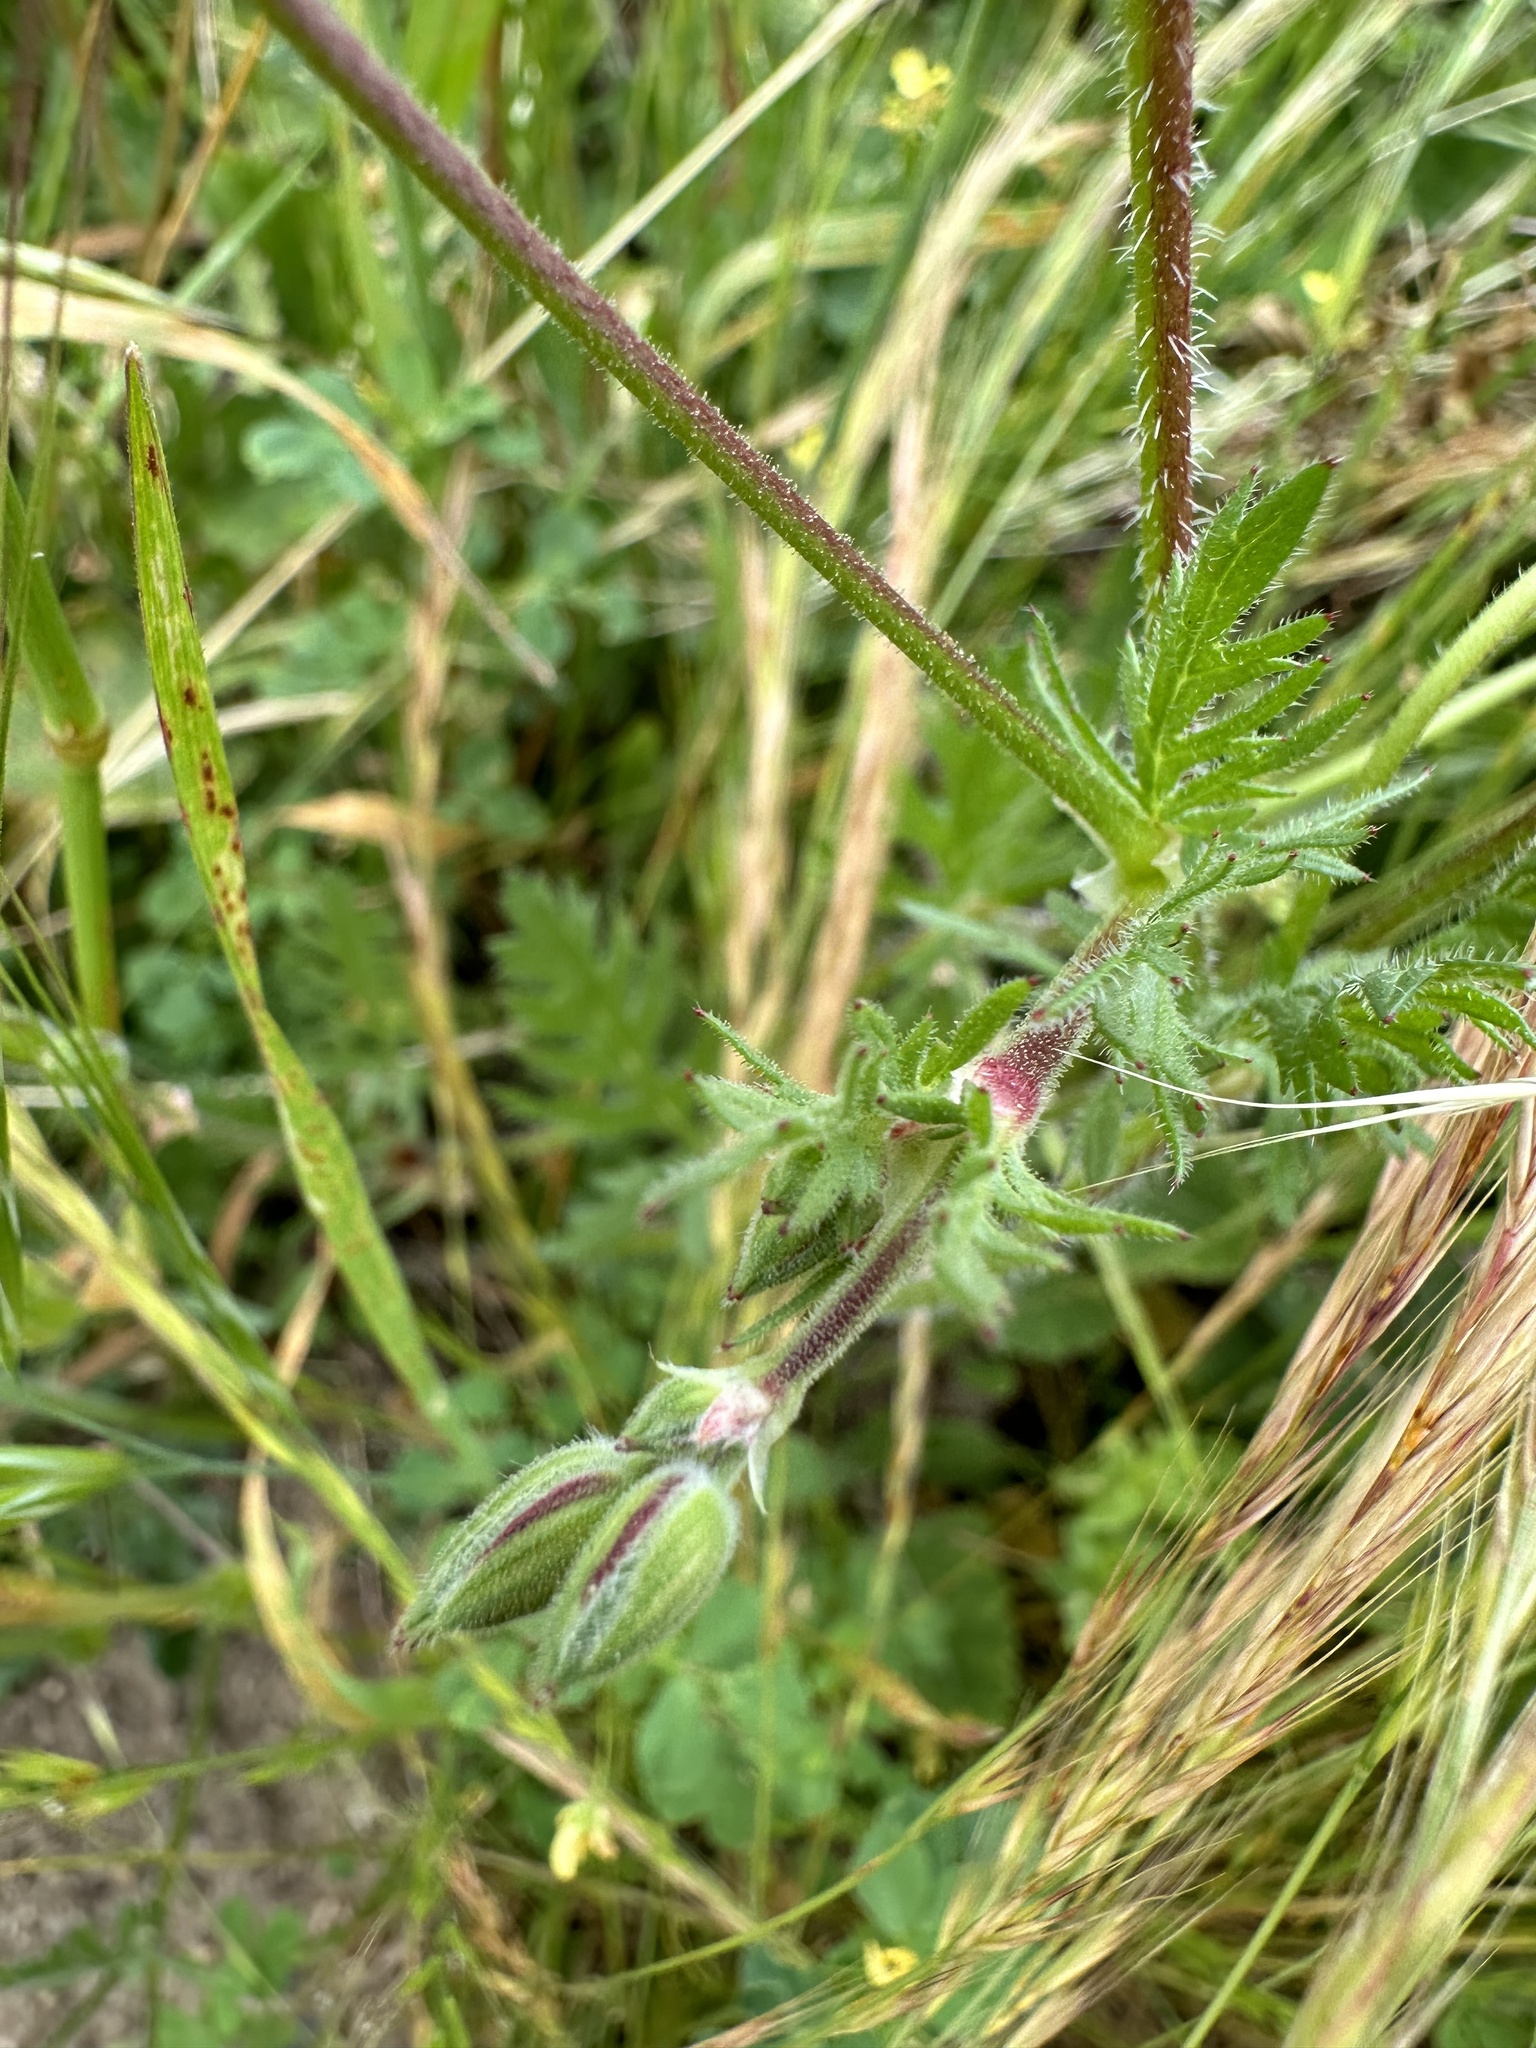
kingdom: Plantae
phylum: Tracheophyta
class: Magnoliopsida
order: Geraniales
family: Geraniaceae
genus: Erodium
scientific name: Erodium botrys
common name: Mediterranean stork's-bill
